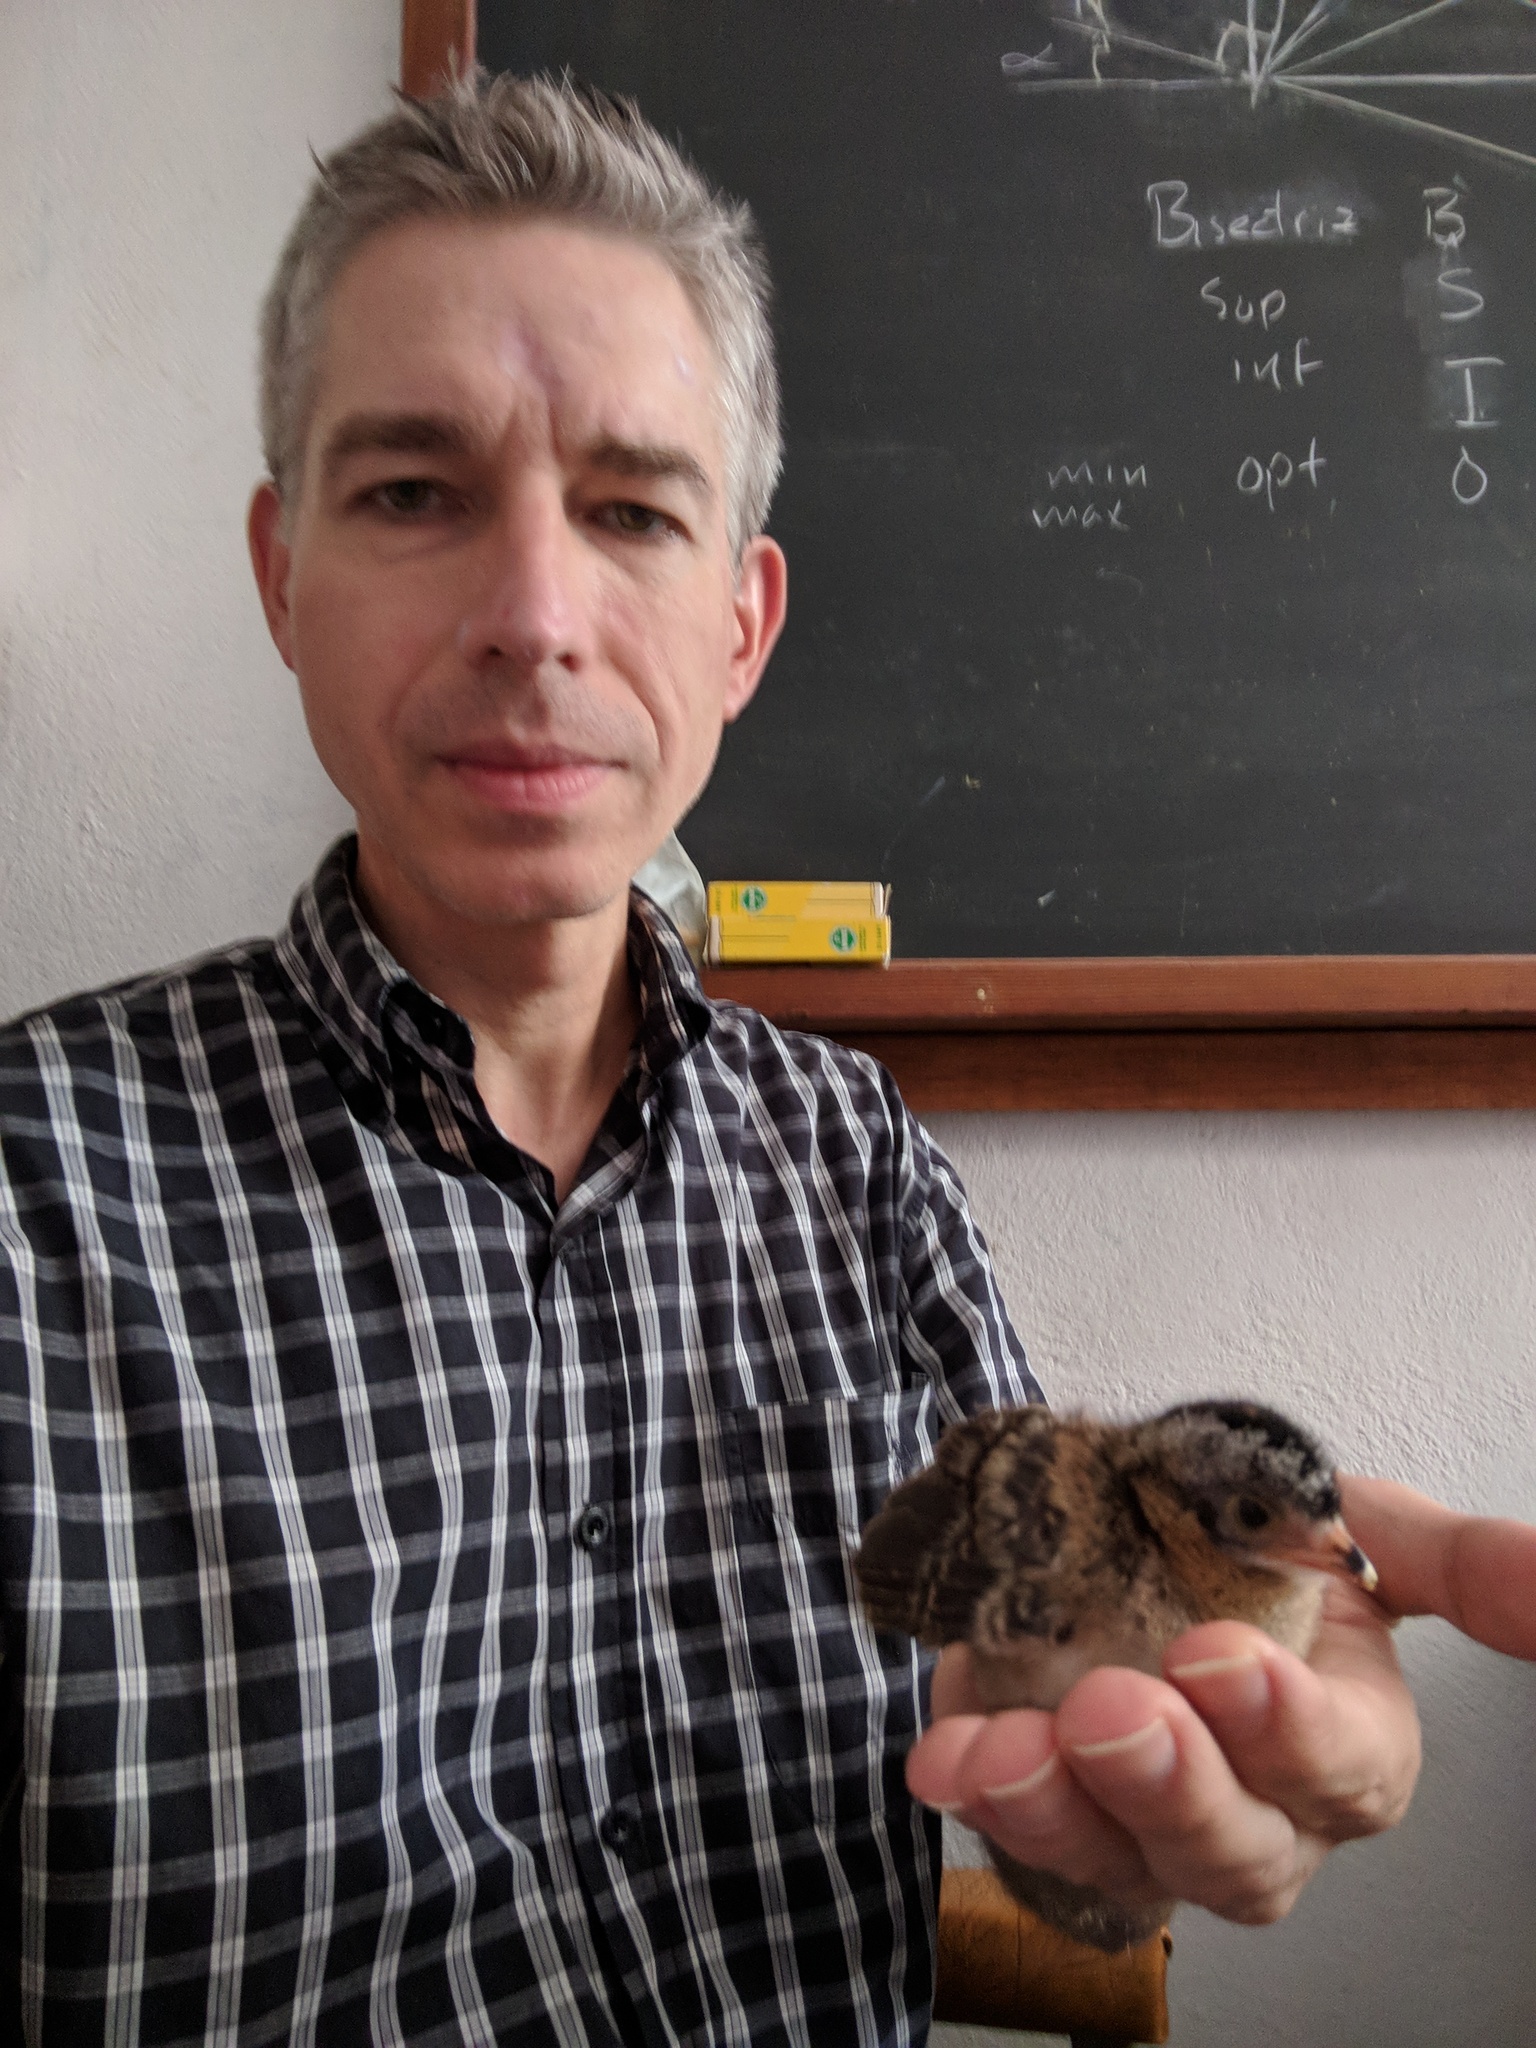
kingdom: Animalia
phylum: Chordata
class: Aves
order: Galliformes
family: Cracidae
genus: Ortalis
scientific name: Ortalis vetula
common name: Plain chachalaca
